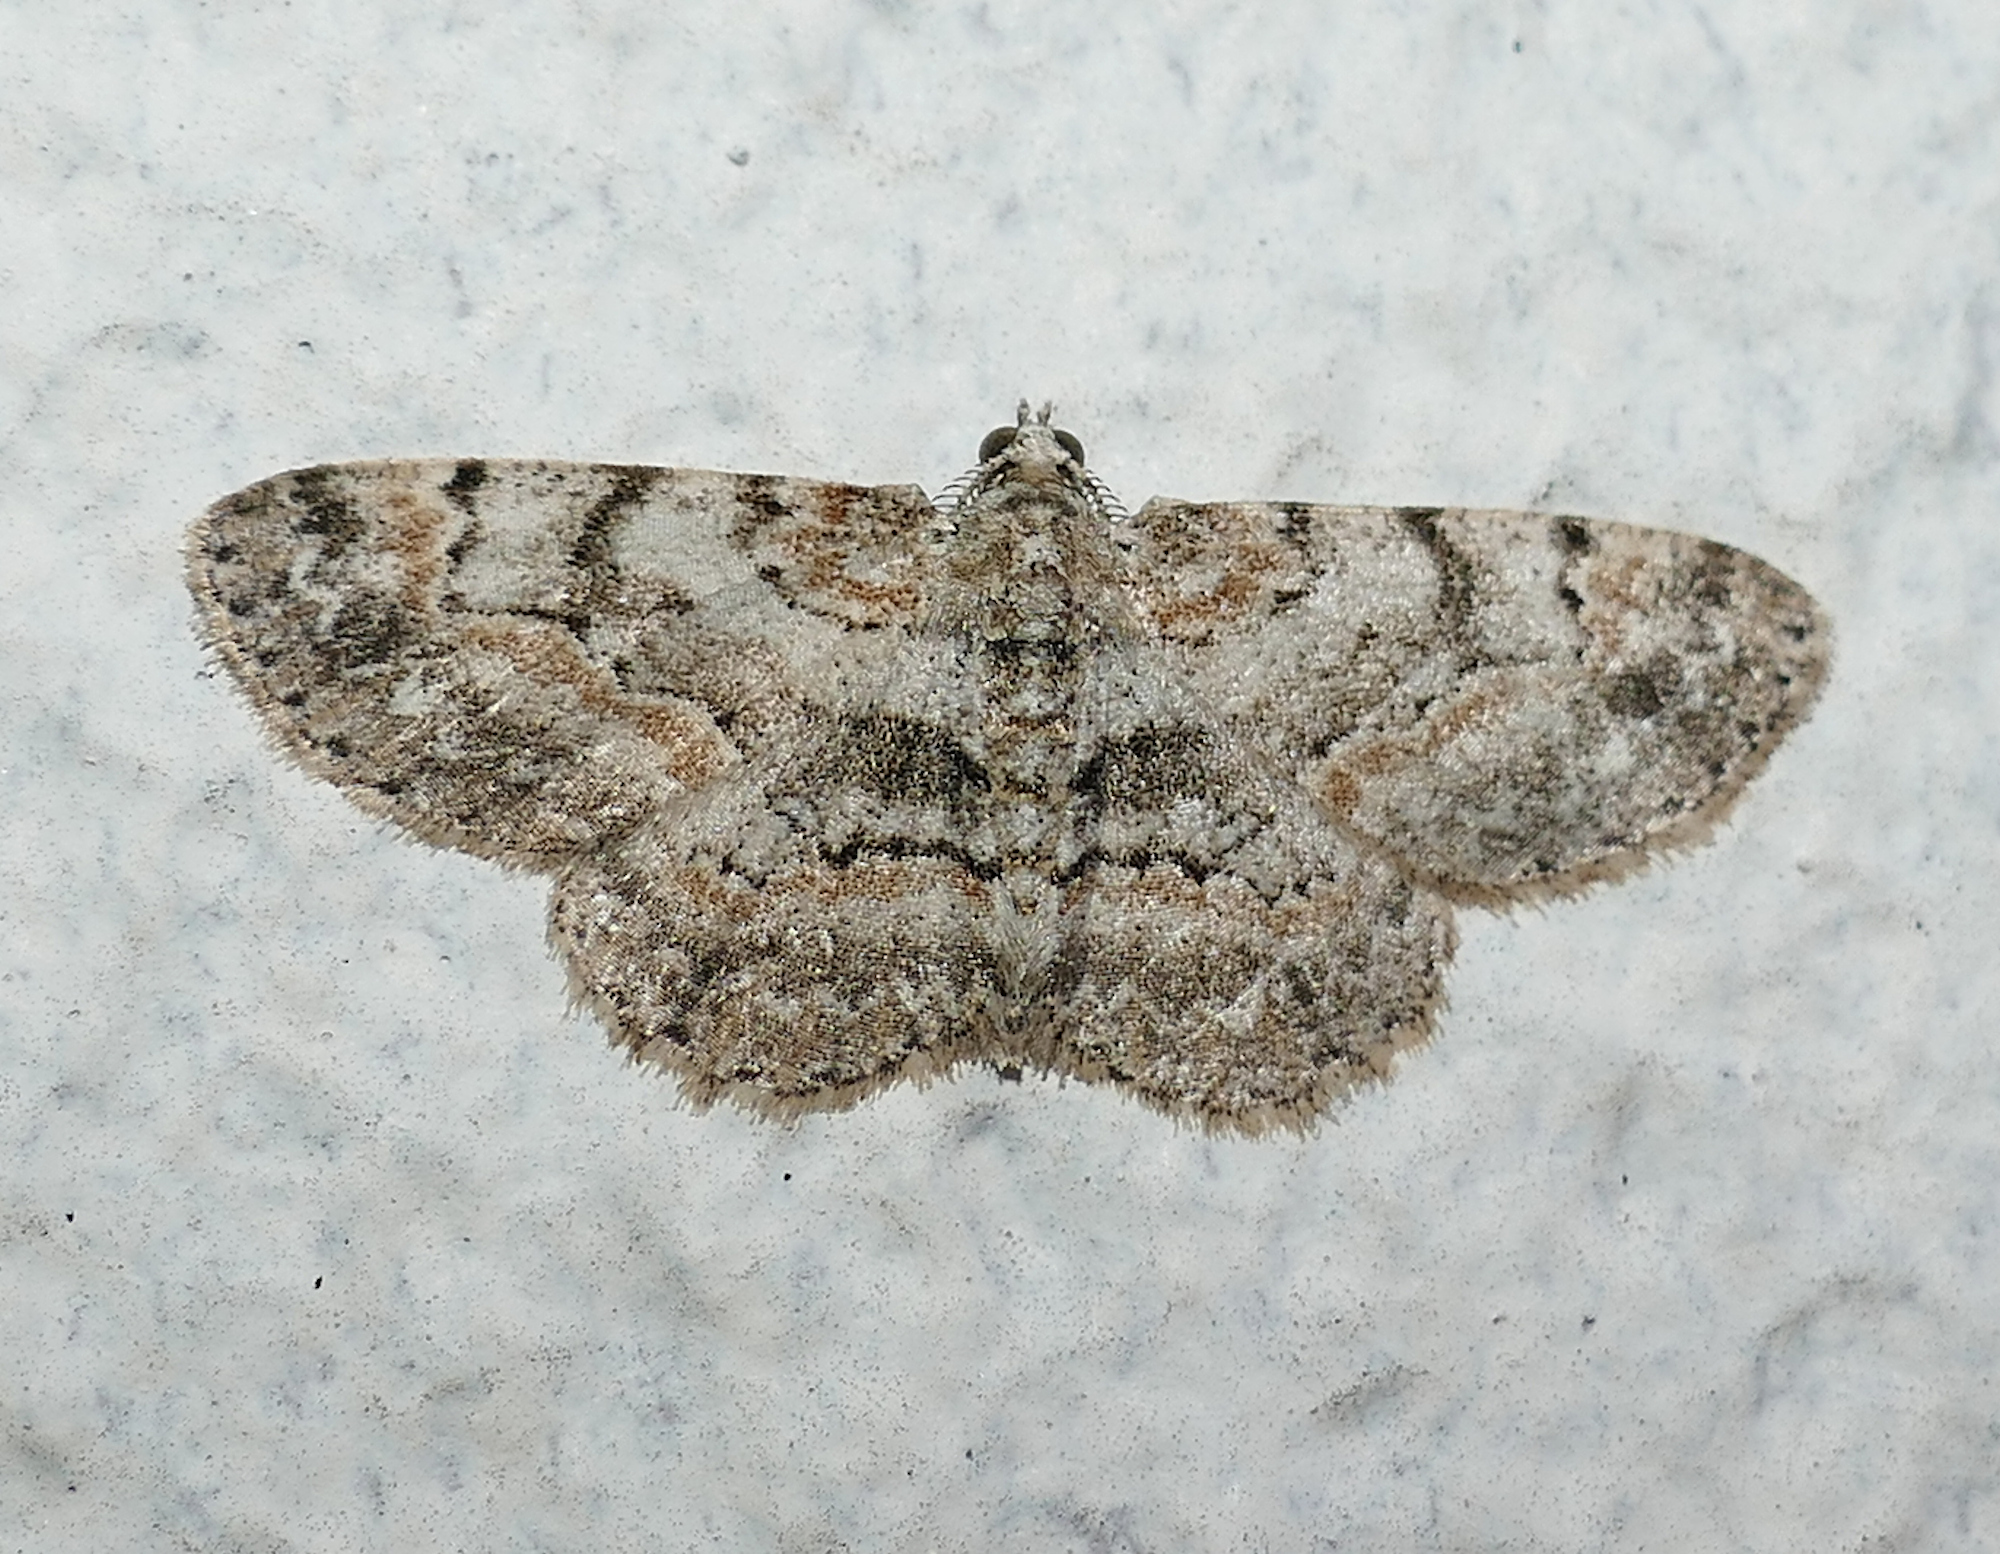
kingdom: Animalia
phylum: Arthropoda
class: Insecta
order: Lepidoptera
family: Geometridae
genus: Iridopsis
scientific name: Iridopsis ephyraria
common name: Pale-winged gray
